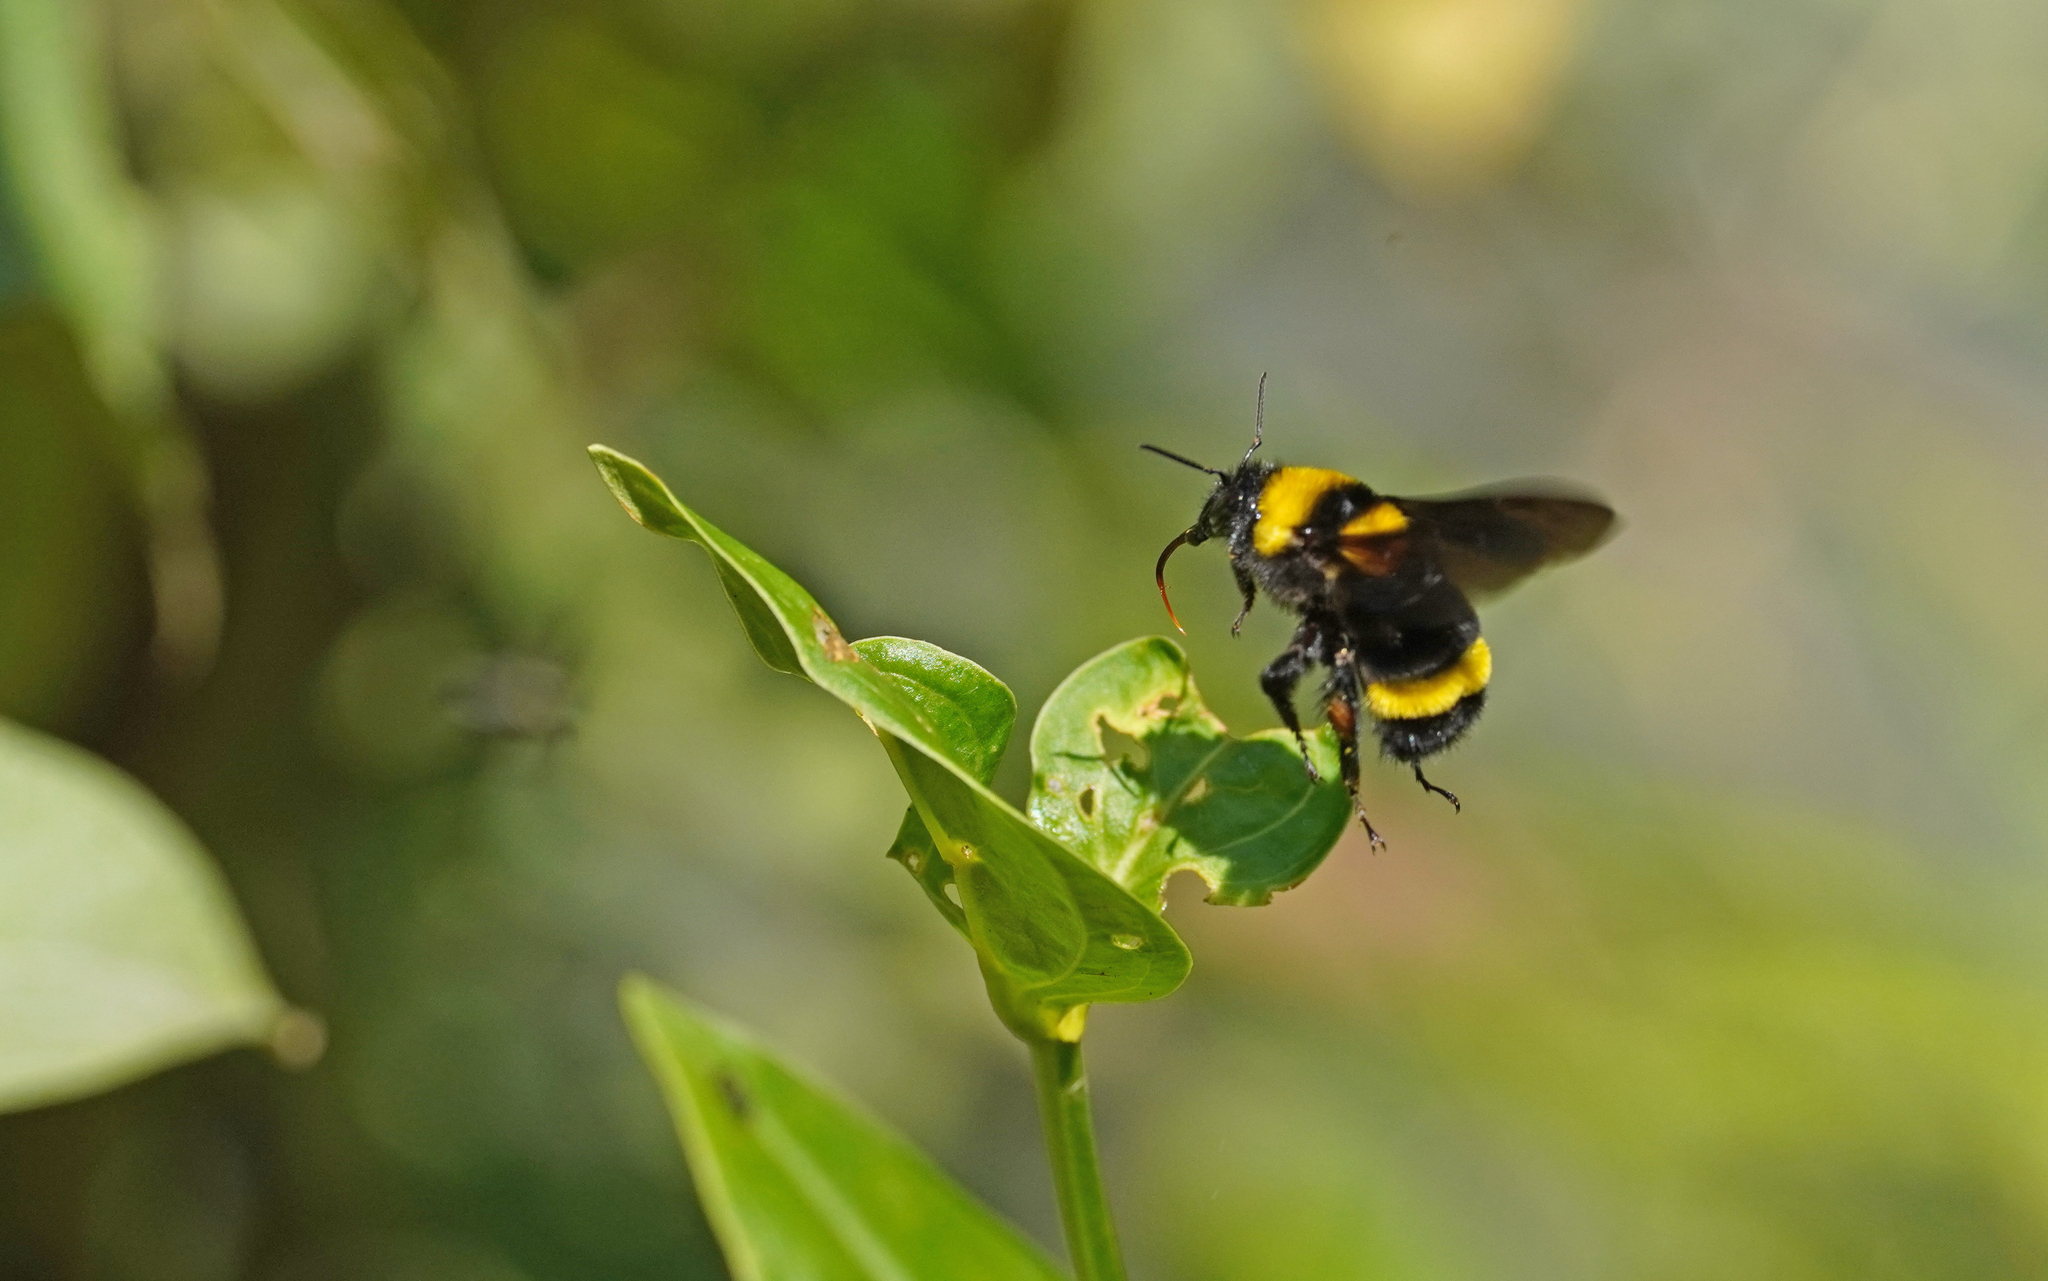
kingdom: Animalia
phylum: Arthropoda
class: Insecta
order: Hymenoptera
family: Apidae
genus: Bombus
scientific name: Bombus transversalis
